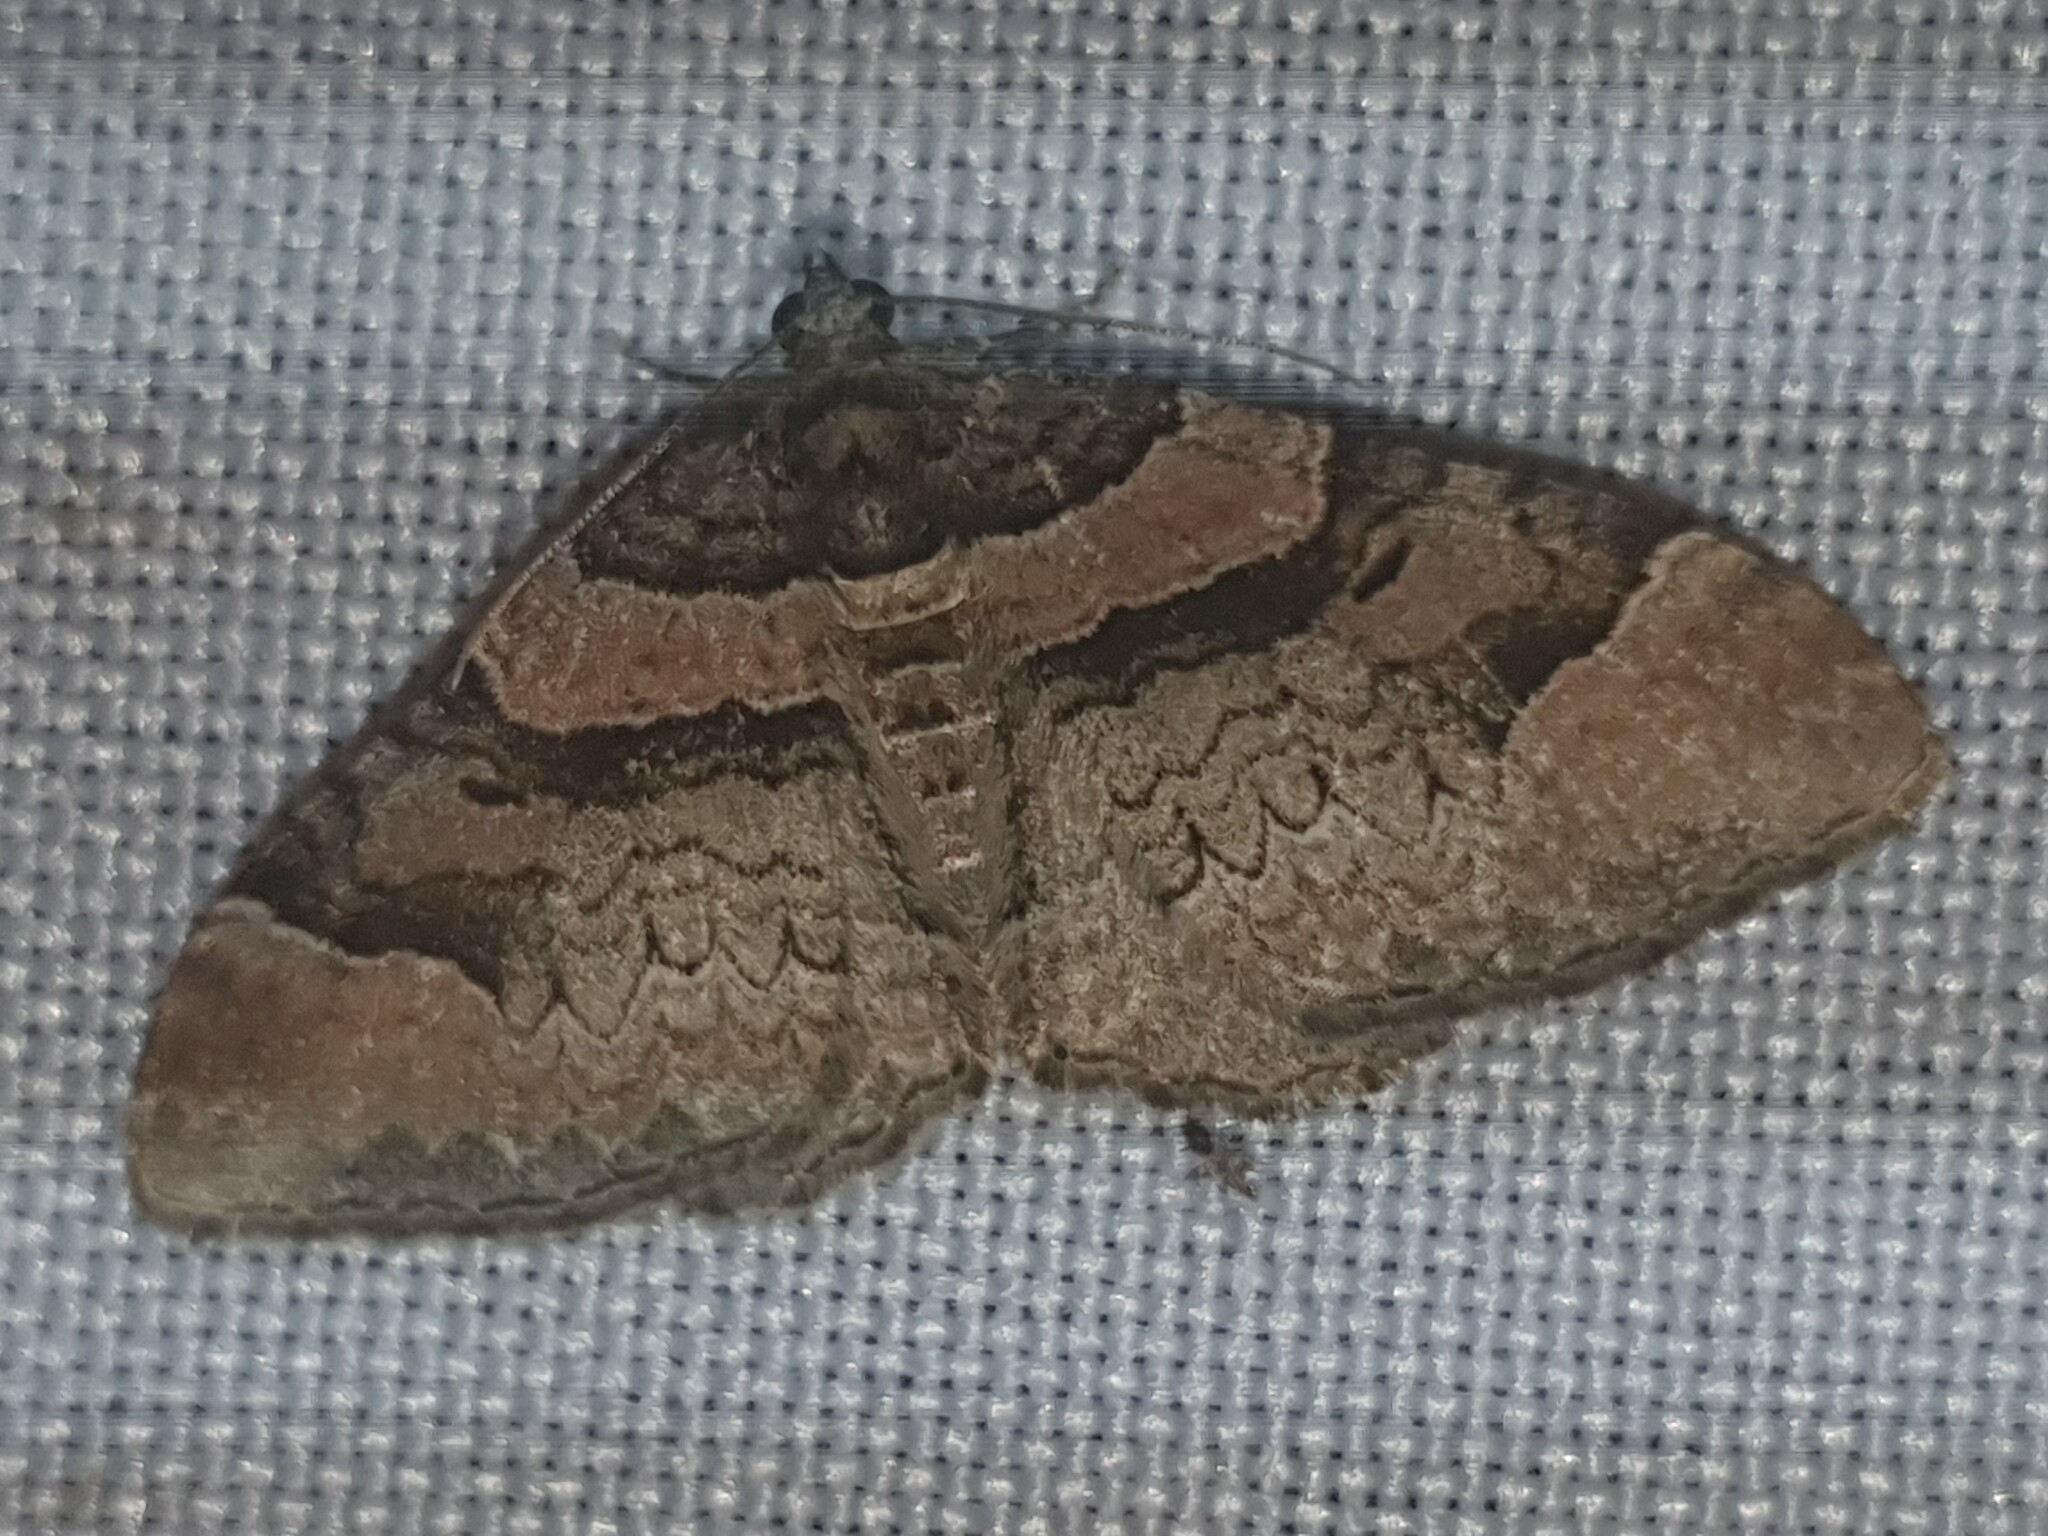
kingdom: Animalia
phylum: Arthropoda
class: Insecta
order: Lepidoptera
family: Geometridae
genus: Catarhoe
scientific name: Catarhoe rubidata
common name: Ruddy carpet
